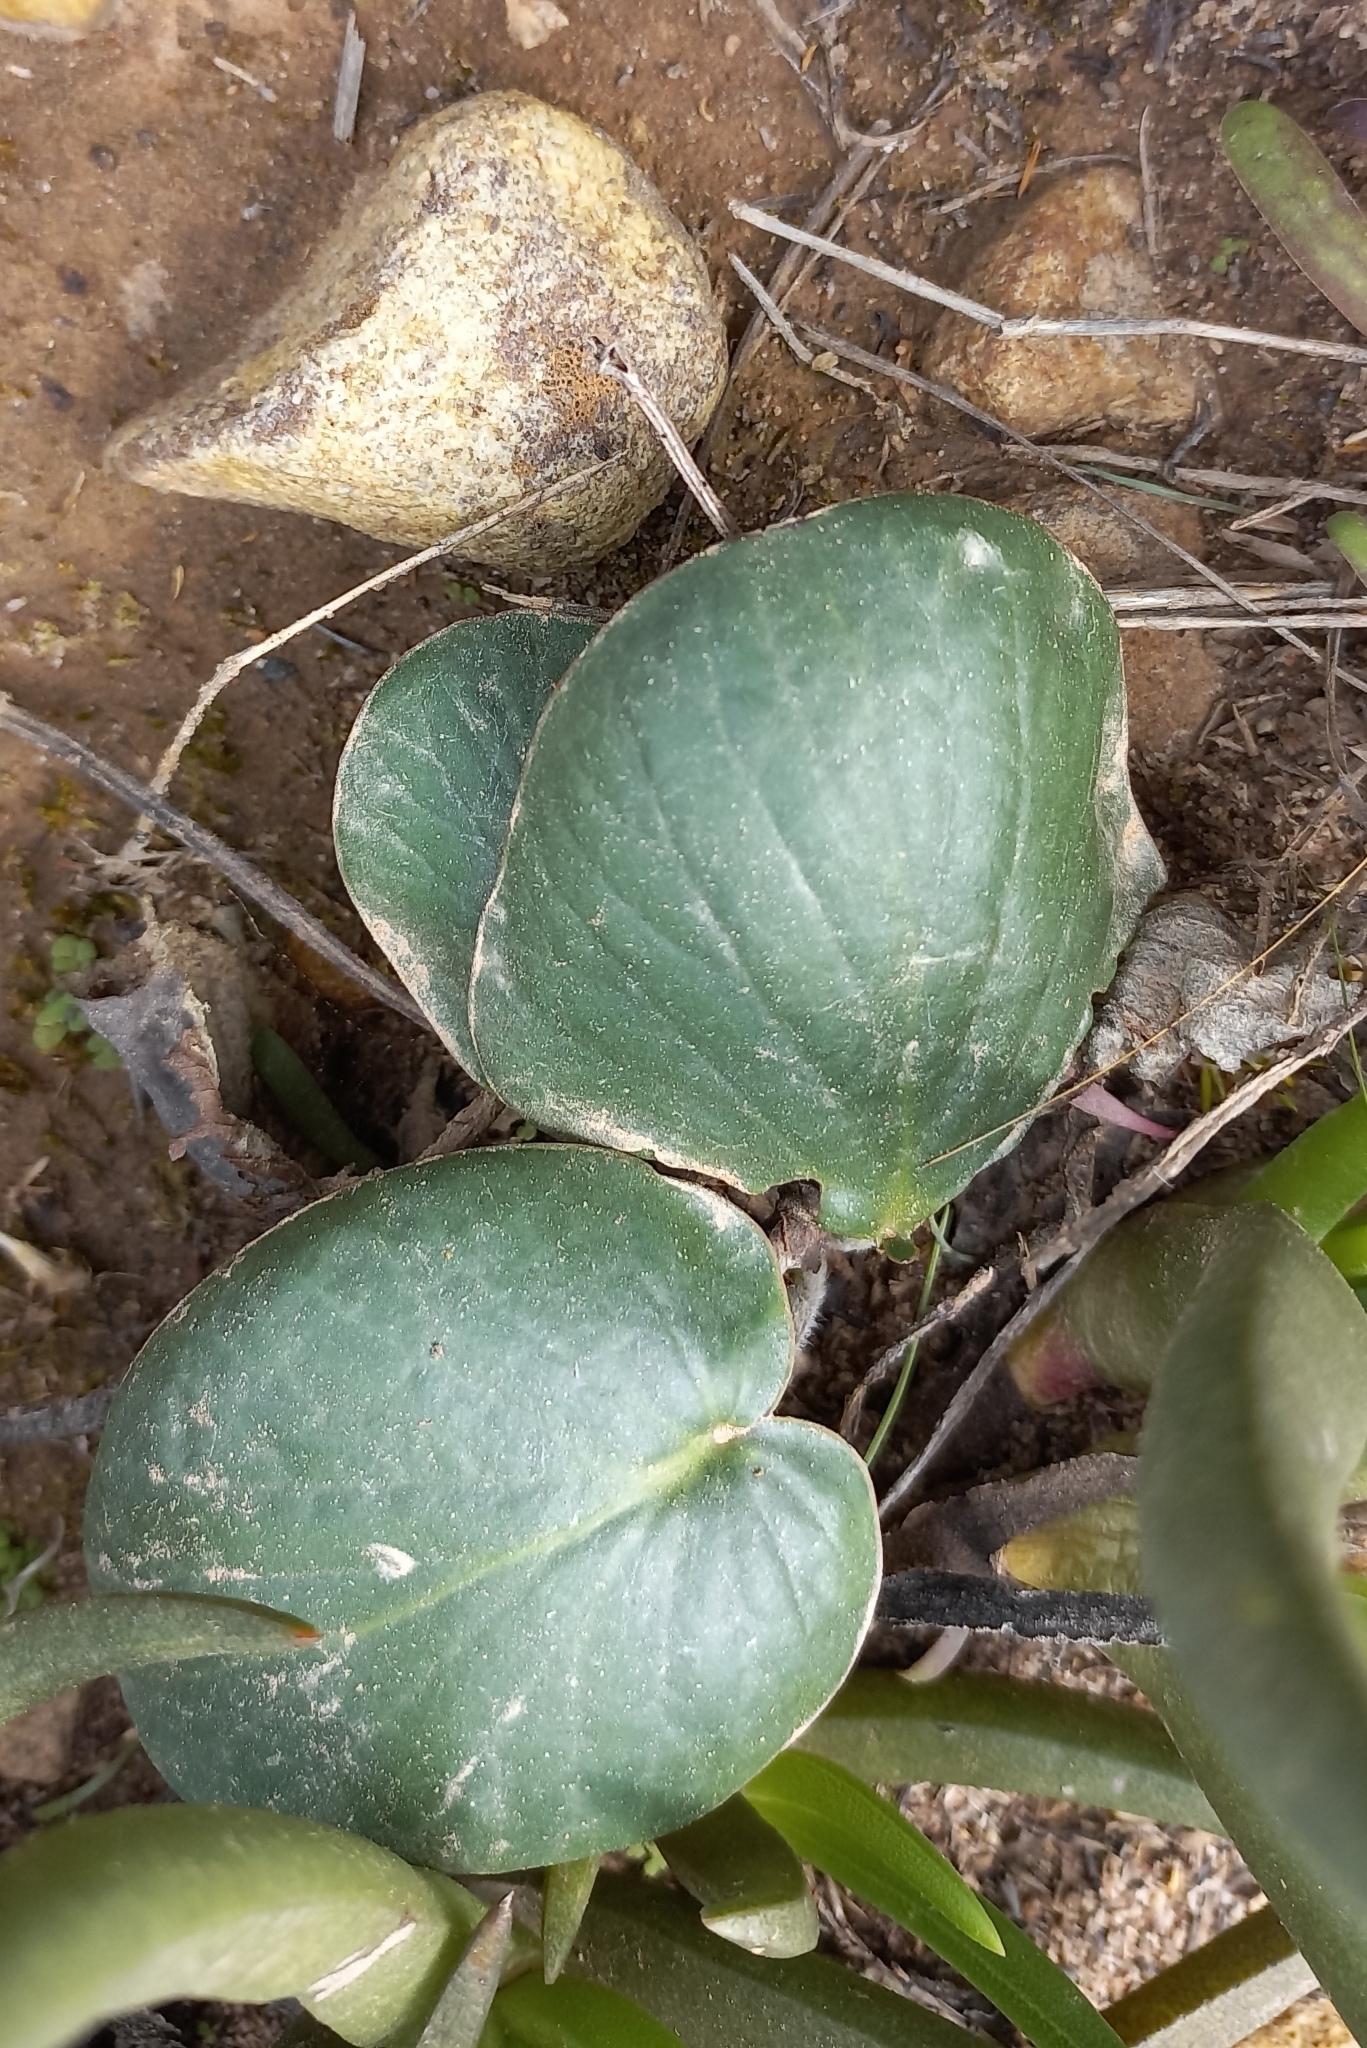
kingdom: Plantae
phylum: Tracheophyta
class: Magnoliopsida
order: Geraniales
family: Geraniaceae
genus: Pelargonium
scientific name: Pelargonium asarifolium
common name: Asarum-leaf pelargonium
